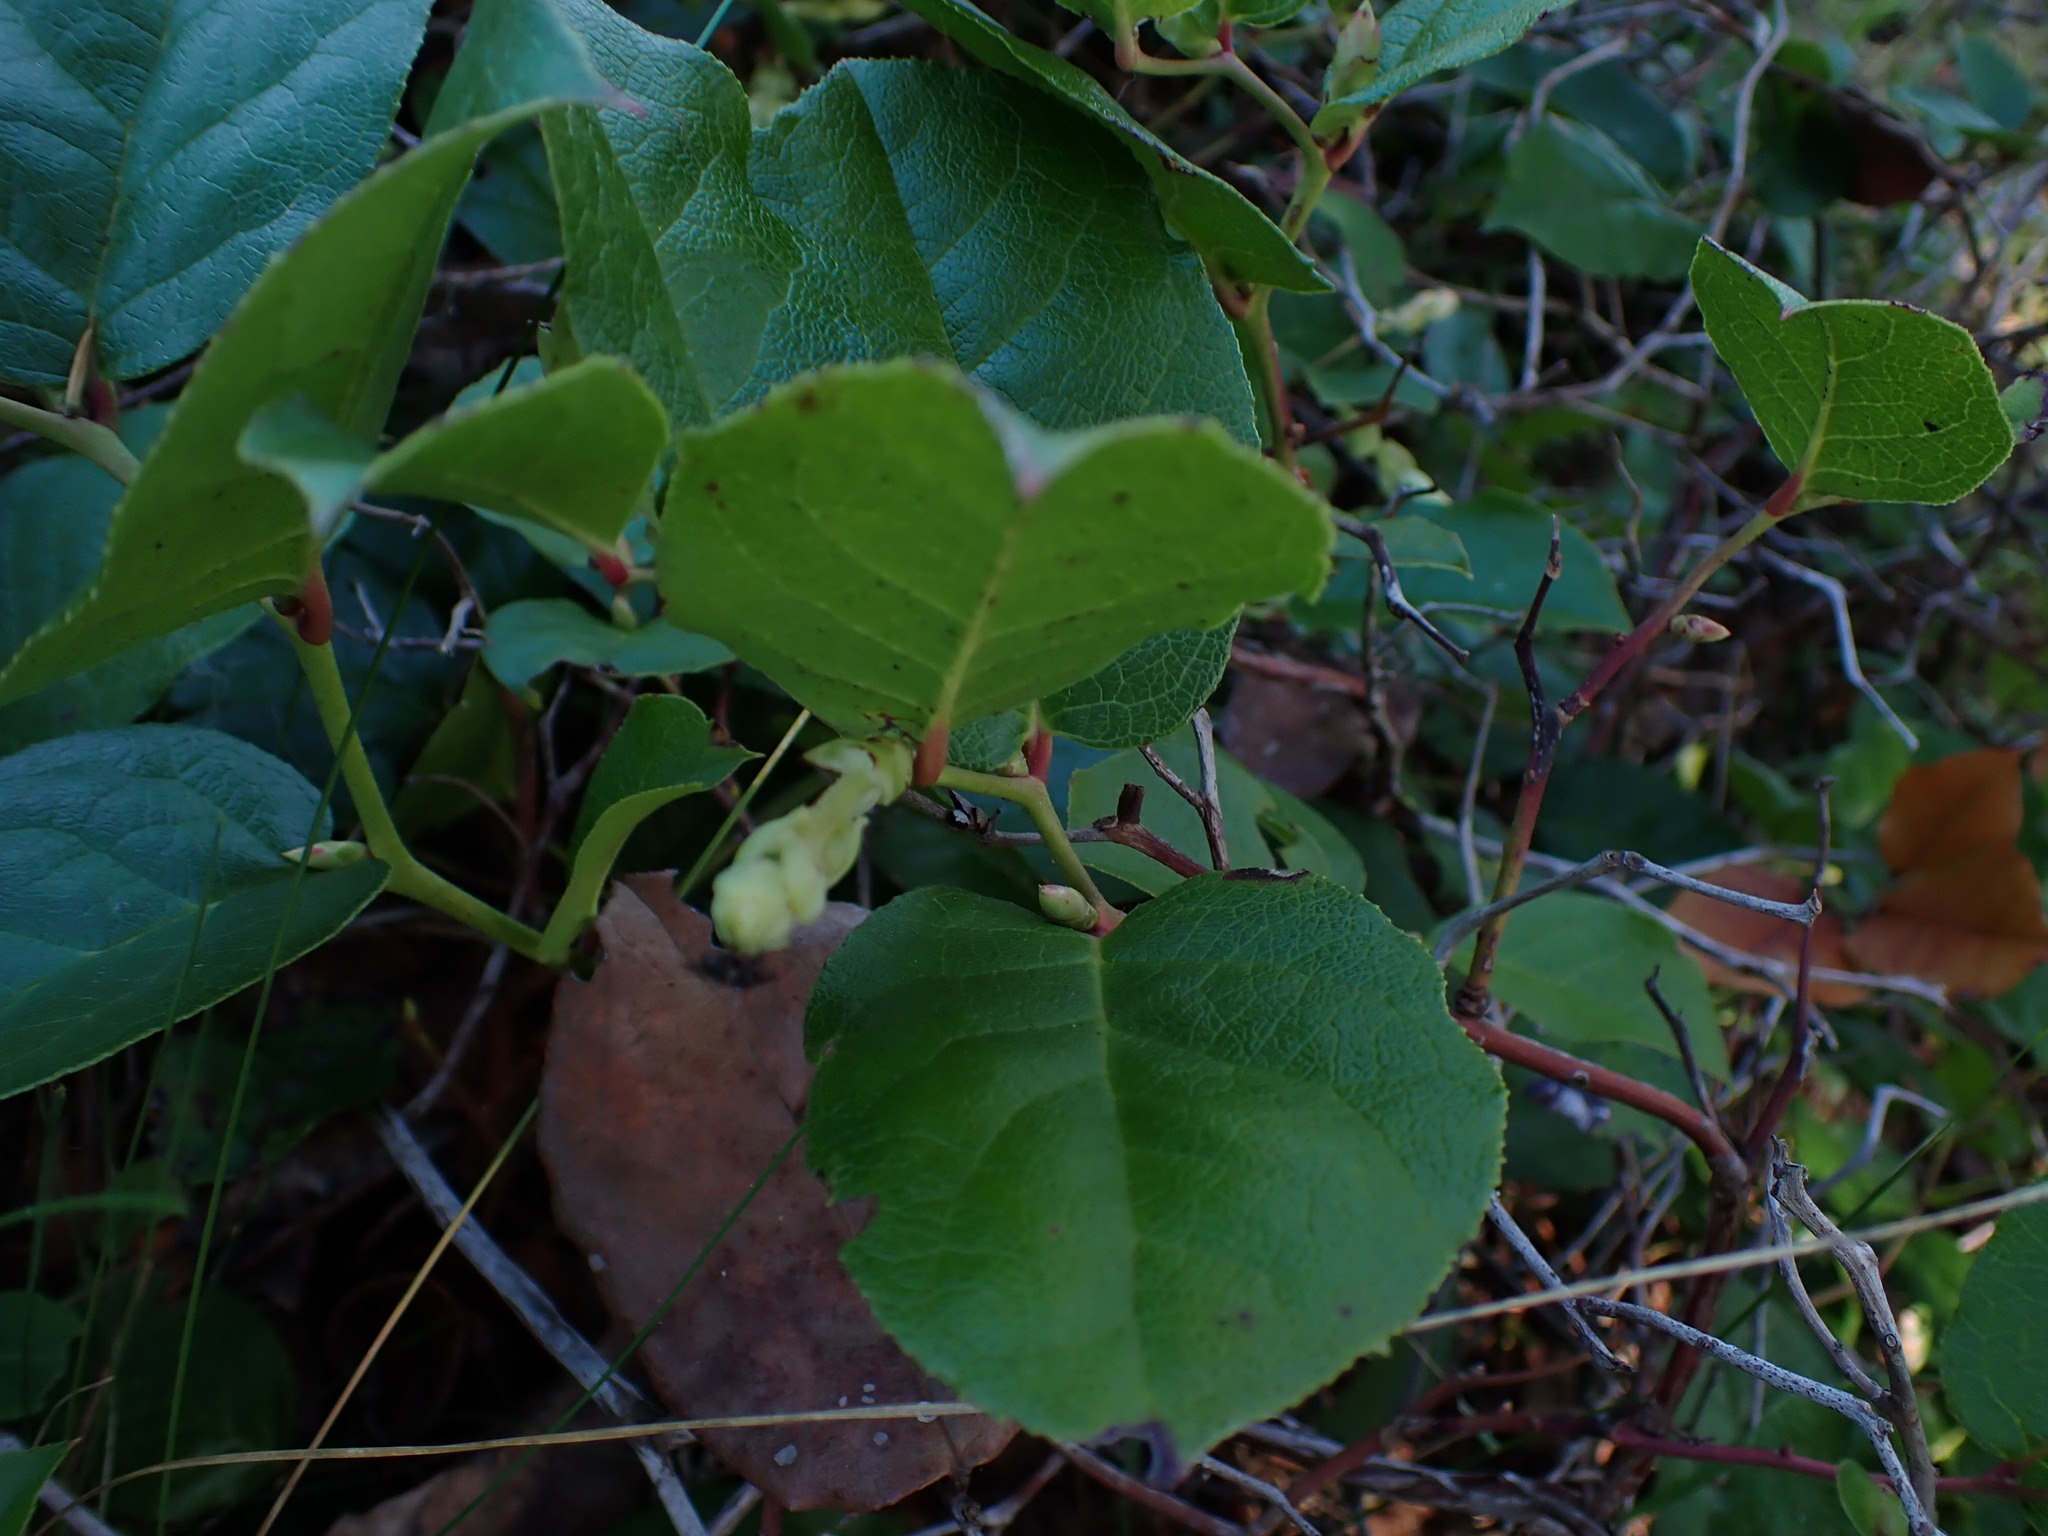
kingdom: Plantae
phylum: Tracheophyta
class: Magnoliopsida
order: Ericales
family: Ericaceae
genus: Gaultheria
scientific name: Gaultheria shallon
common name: Shallon
